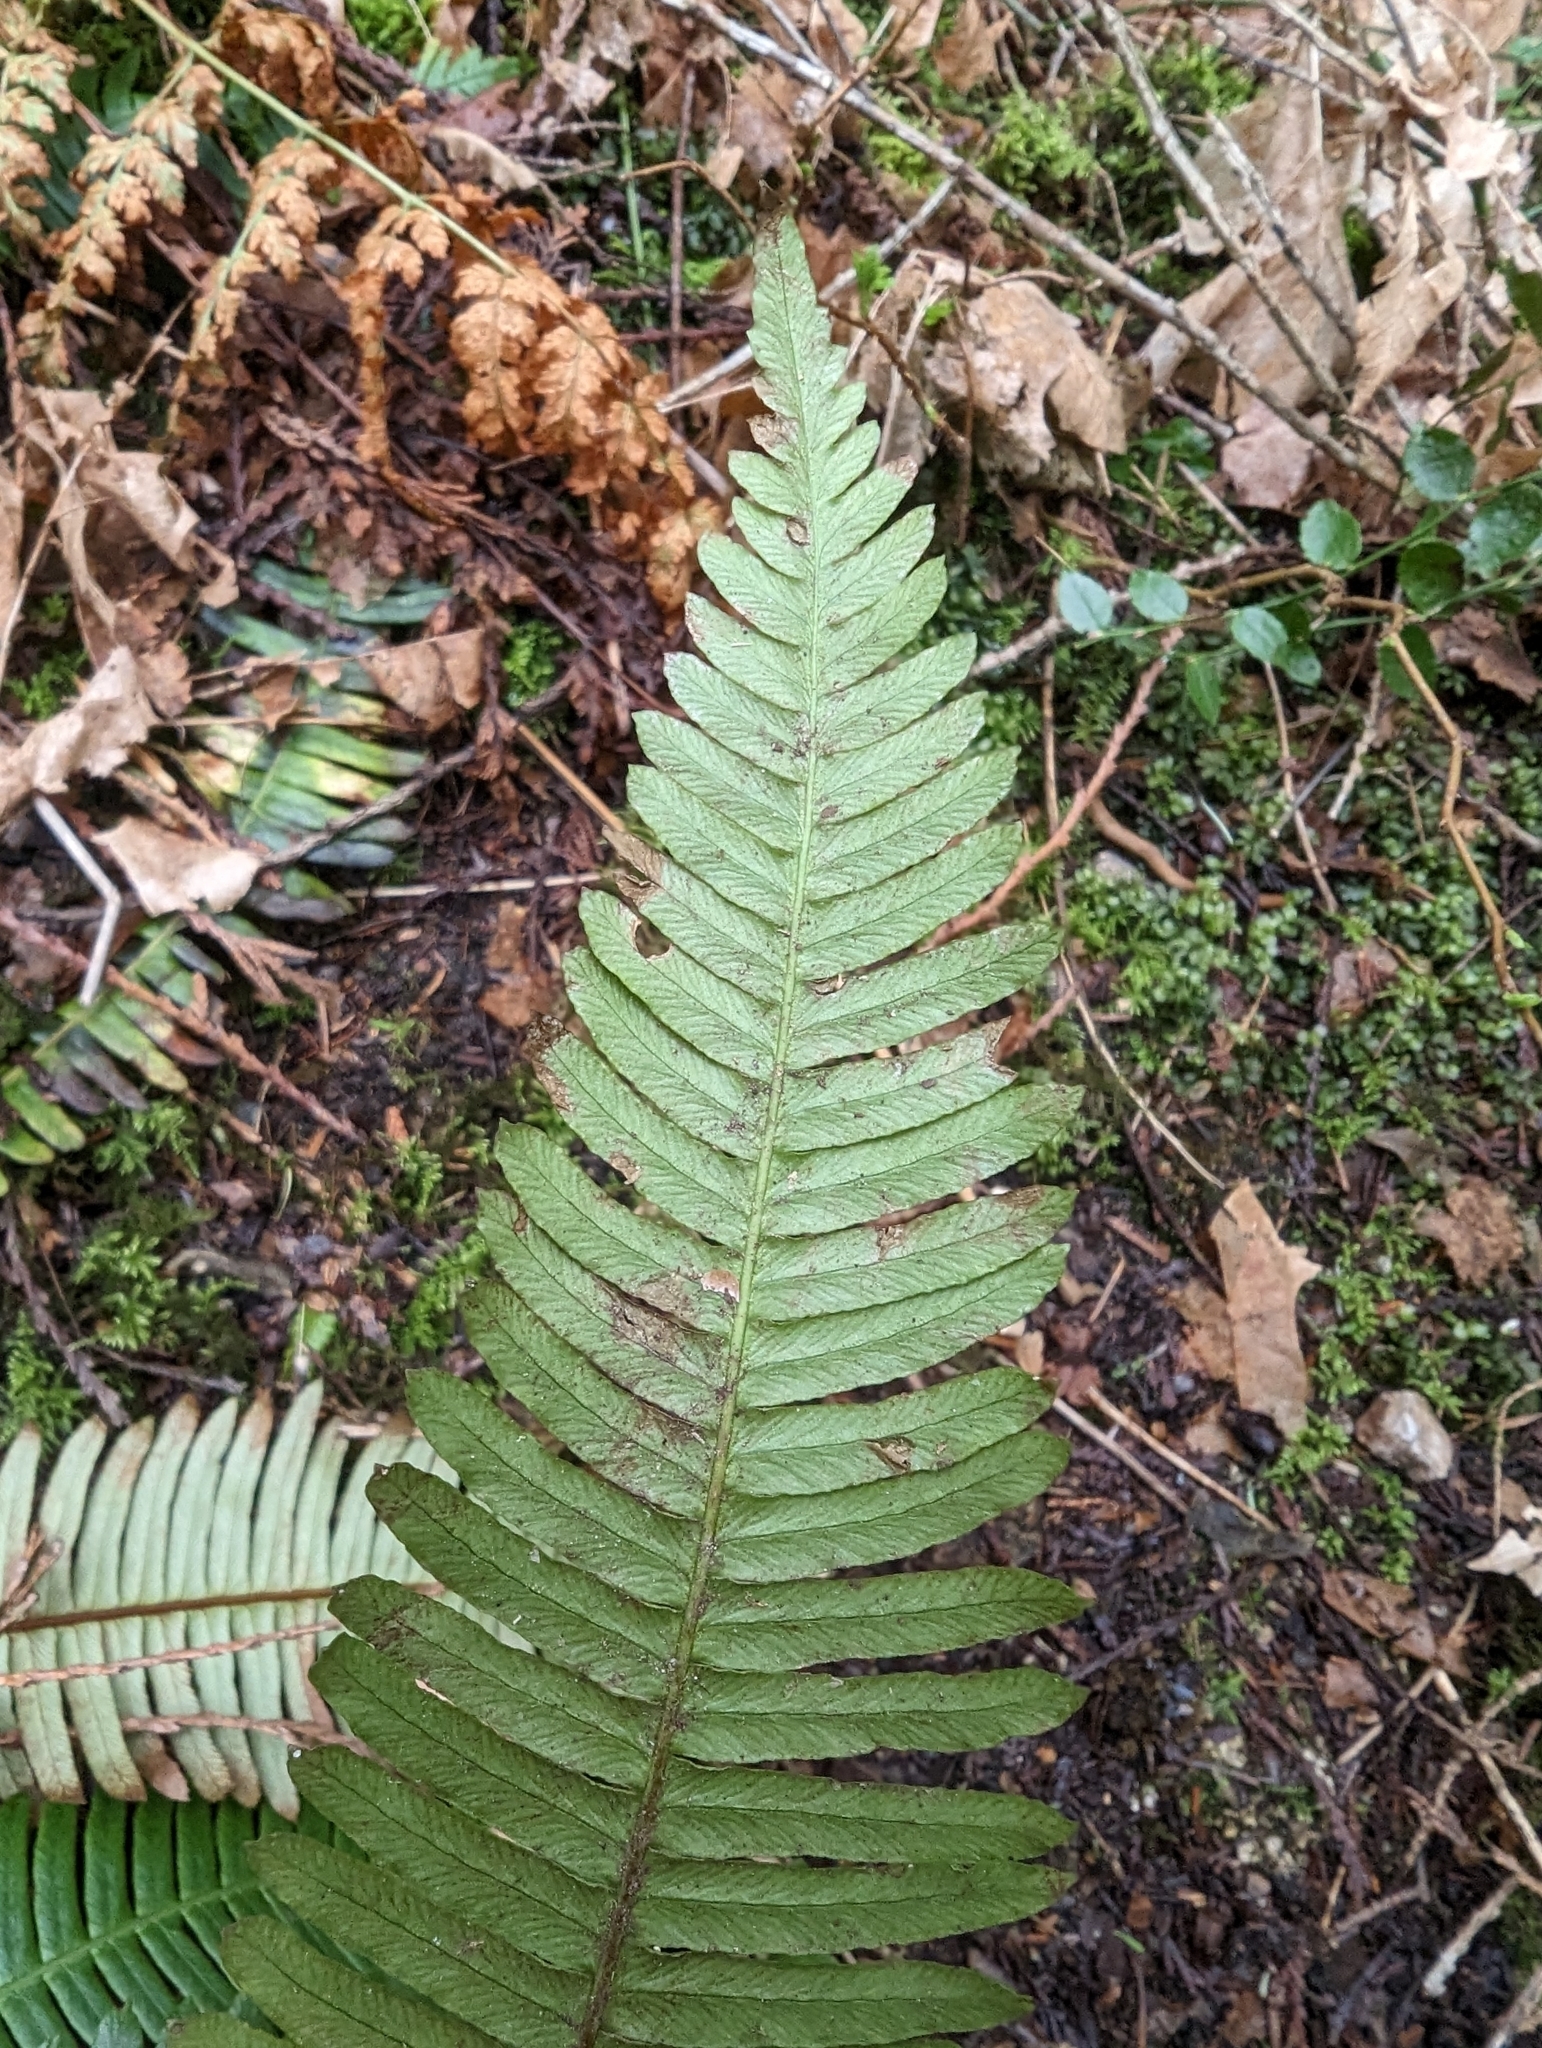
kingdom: Plantae
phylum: Tracheophyta
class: Polypodiopsida
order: Polypodiales
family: Blechnaceae
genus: Struthiopteris
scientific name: Struthiopteris spicant
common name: Deer fern
